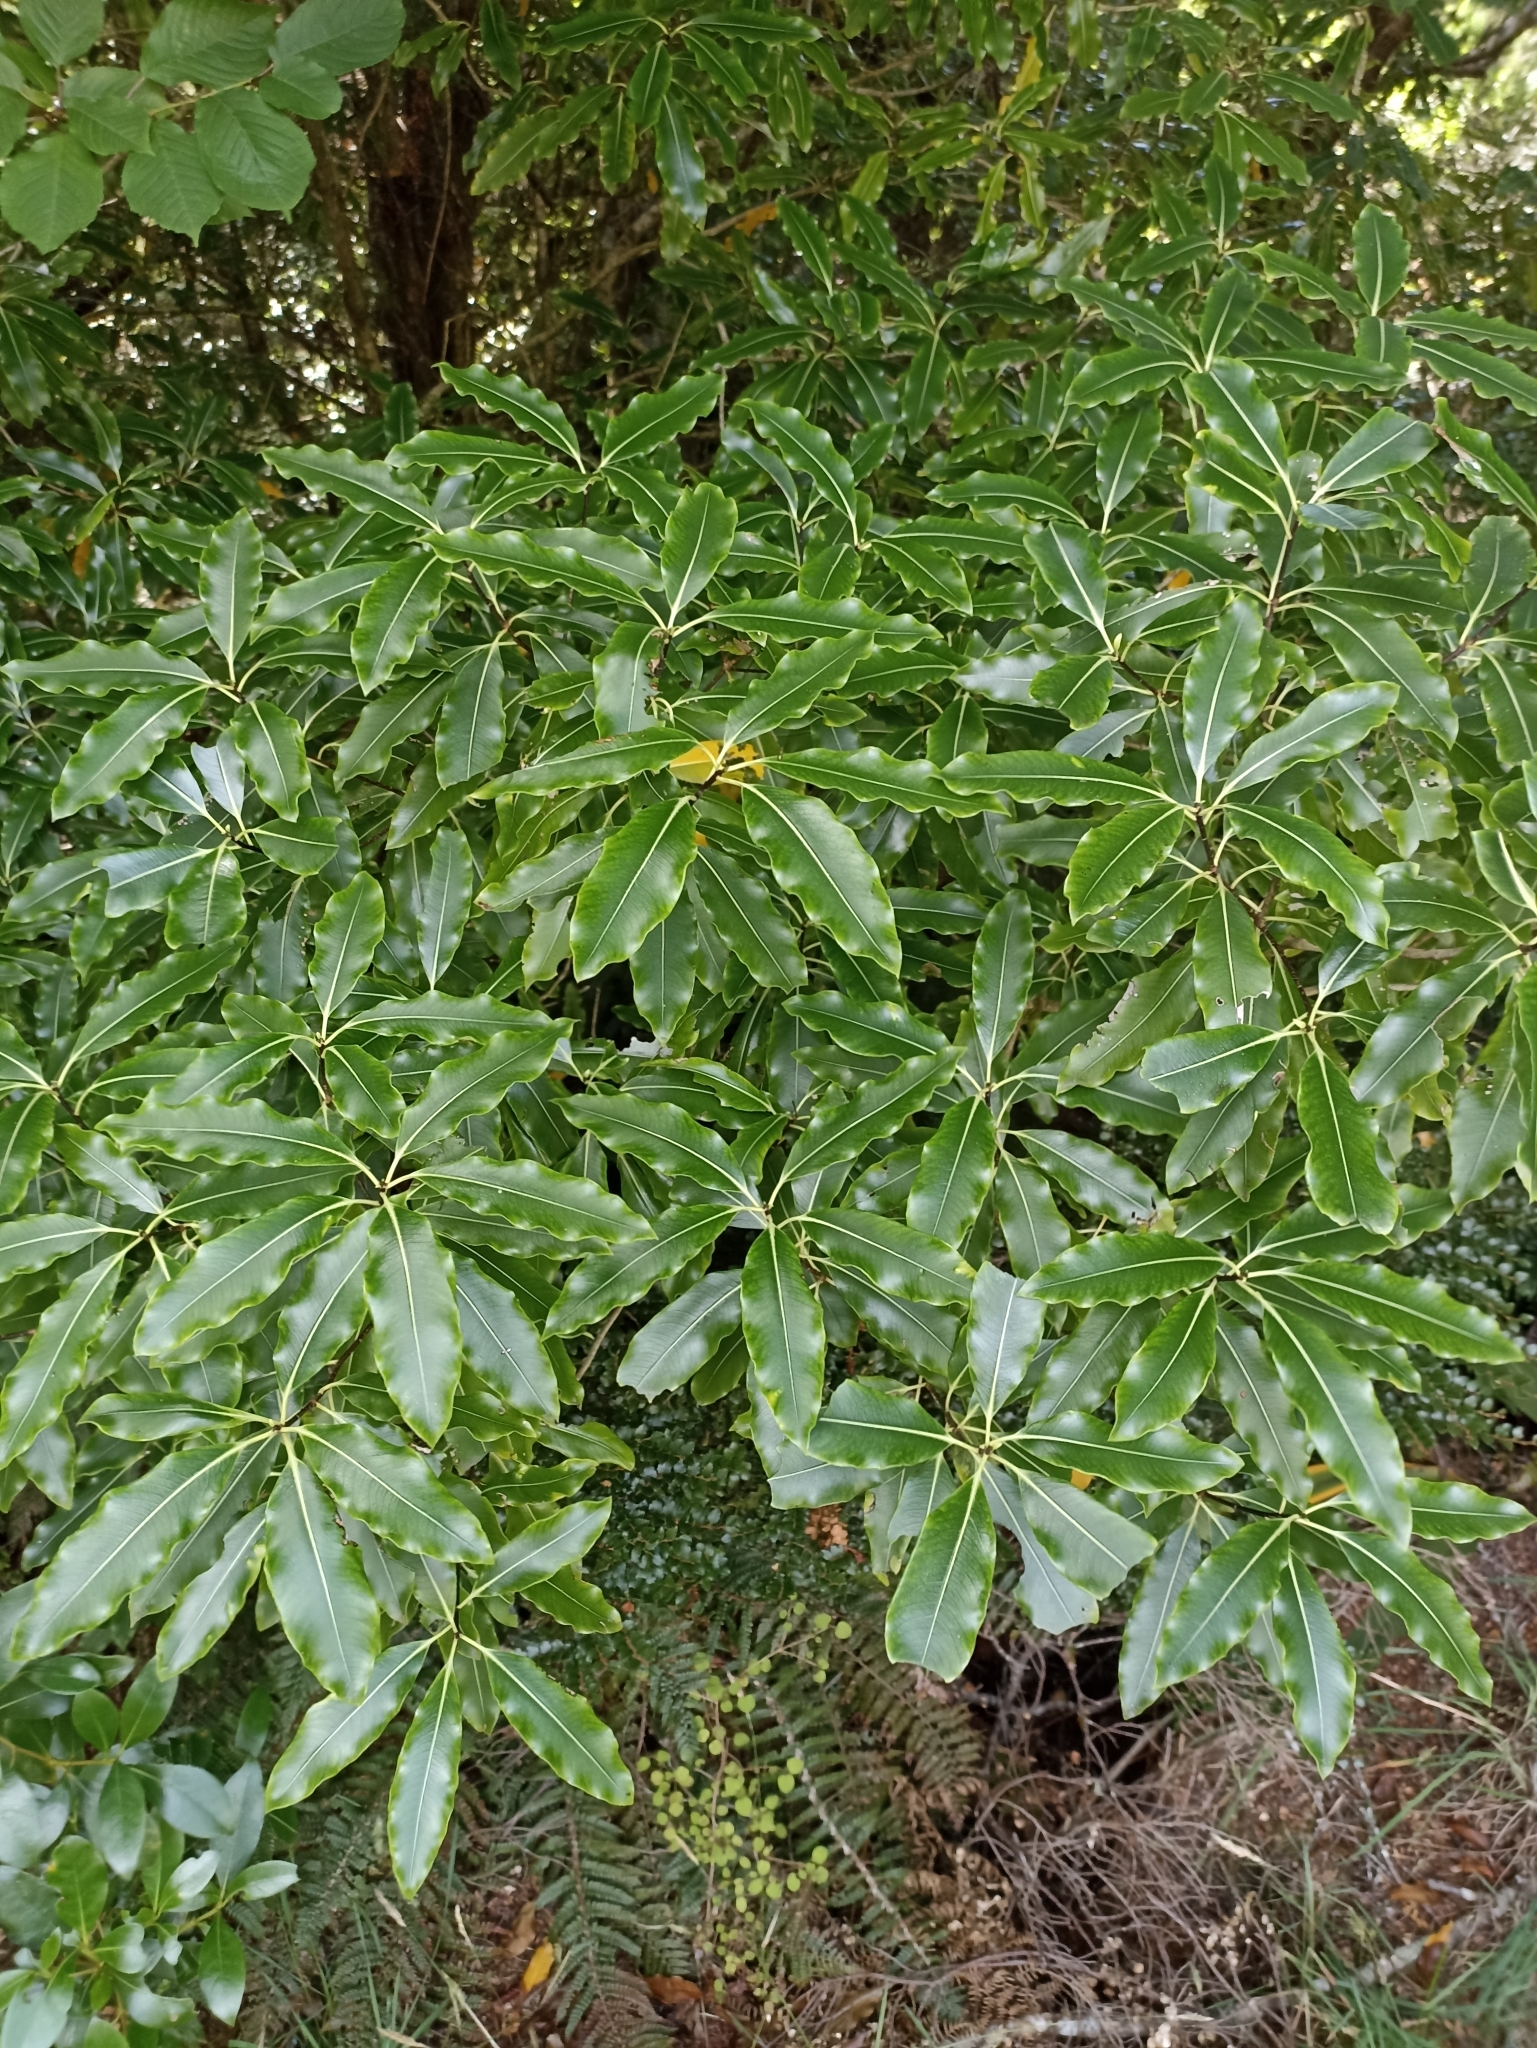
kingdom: Plantae
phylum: Tracheophyta
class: Magnoliopsida
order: Apiales
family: Pittosporaceae
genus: Pittosporum
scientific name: Pittosporum eugenioides
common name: Lemonwood
